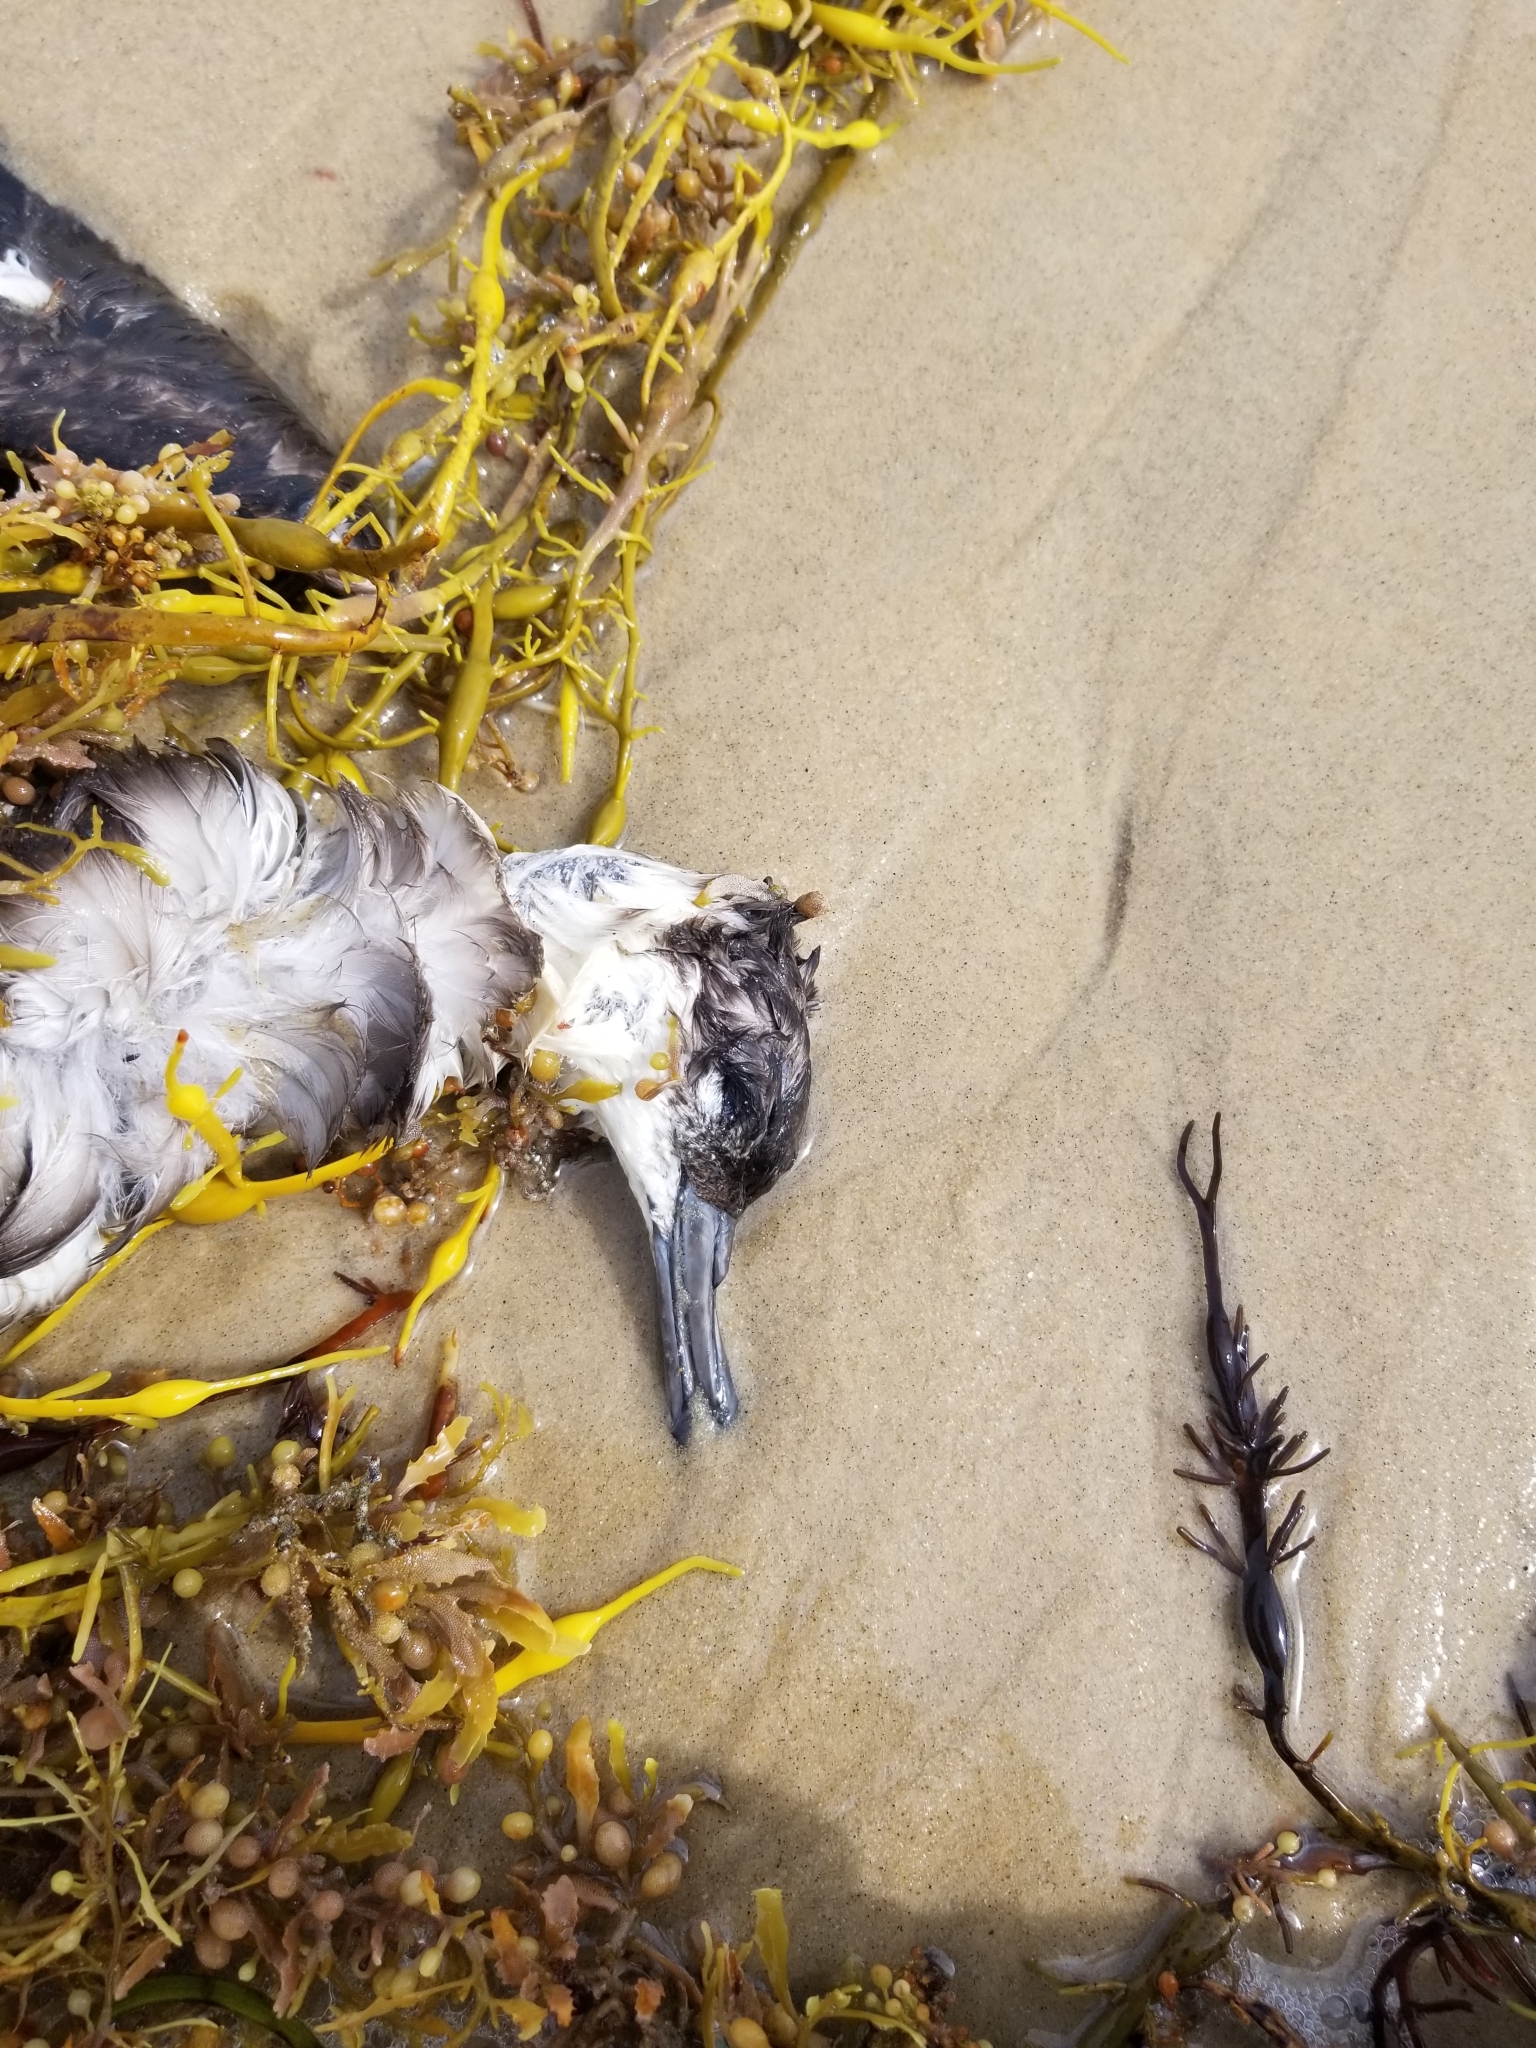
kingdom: Animalia
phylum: Chordata
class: Aves
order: Procellariiformes
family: Procellariidae
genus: Puffinus
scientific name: Puffinus gravis
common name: Great shearwater
